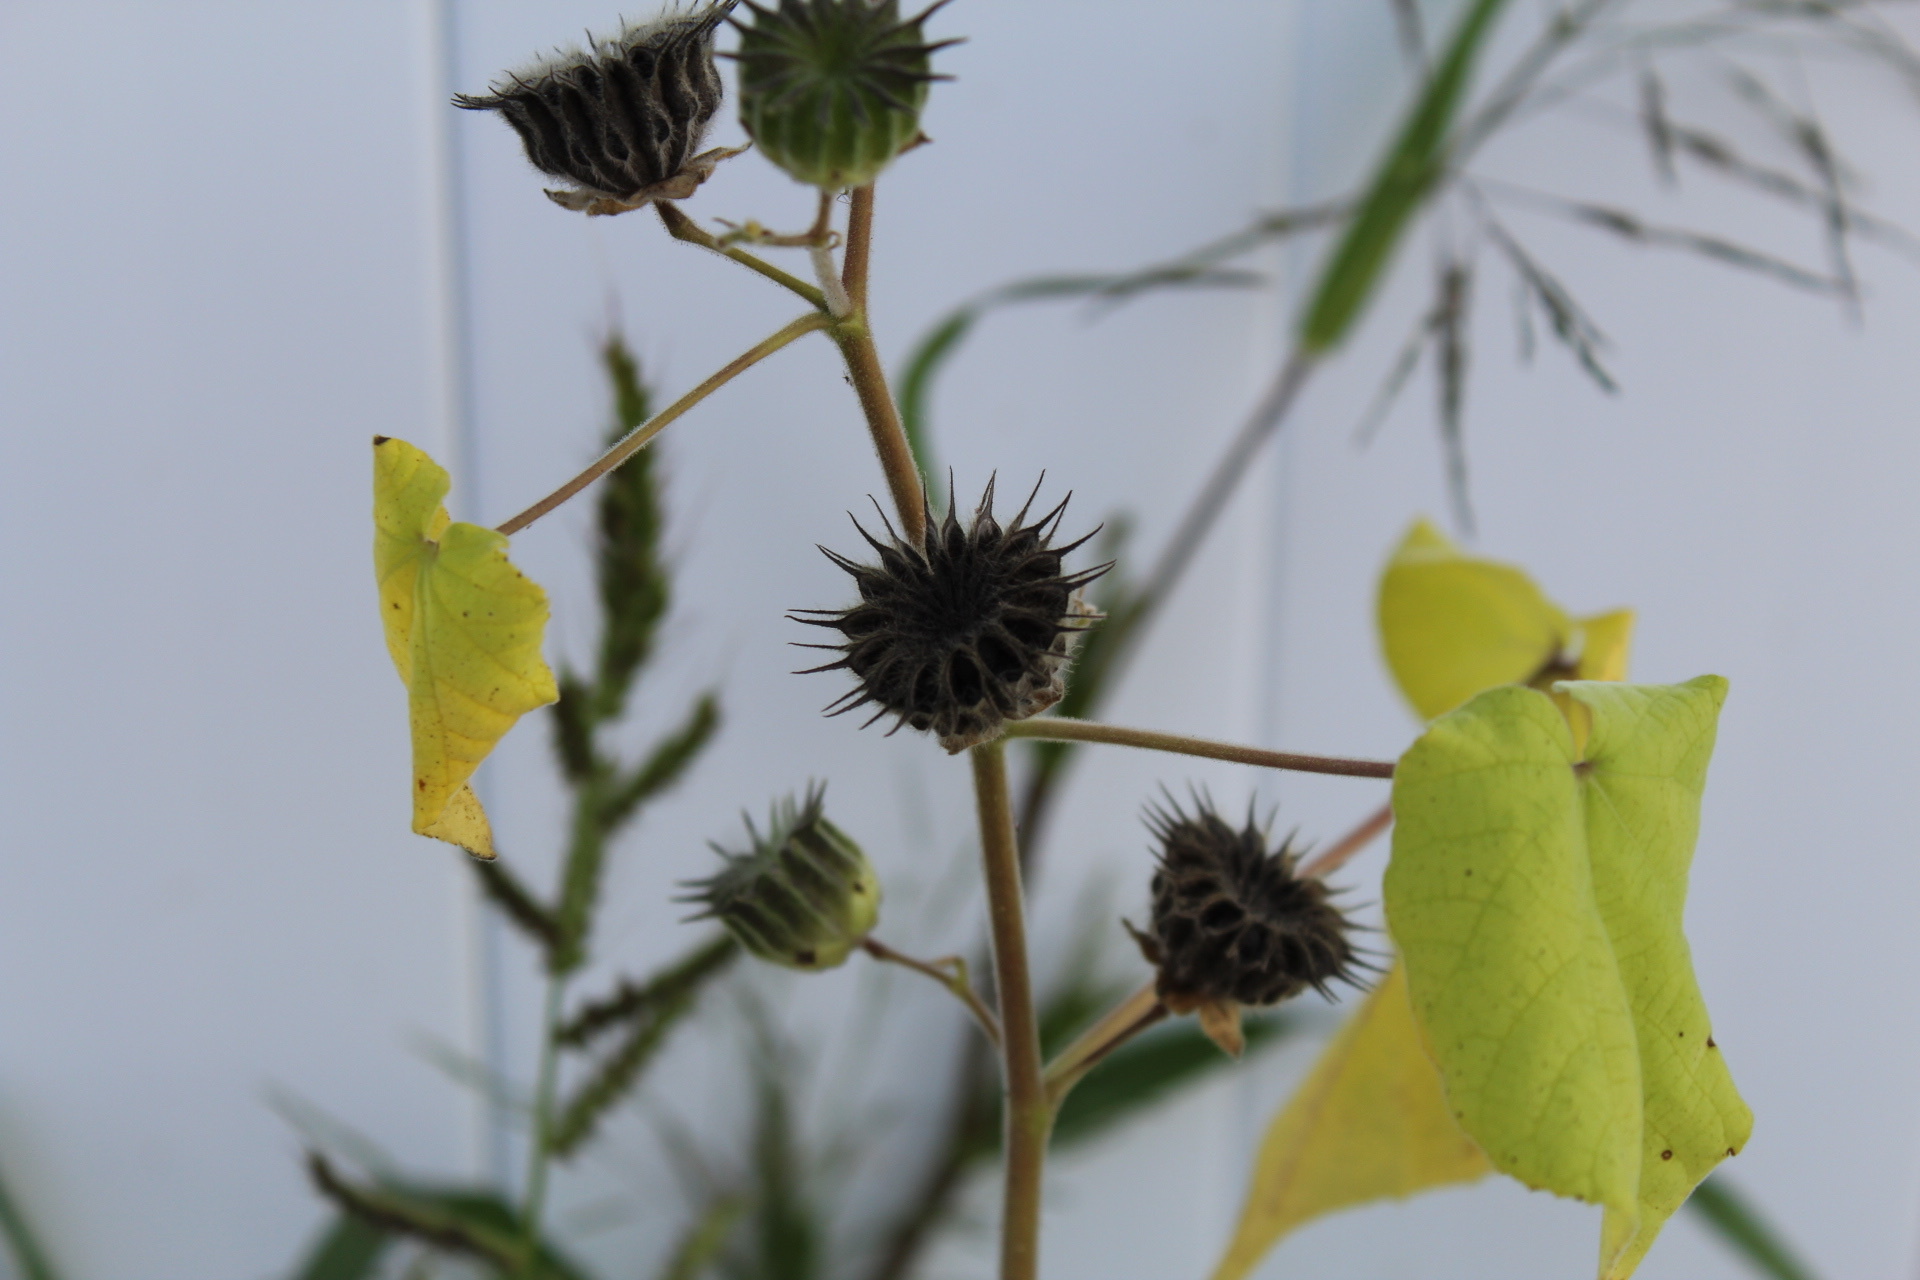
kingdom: Plantae
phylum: Tracheophyta
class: Magnoliopsida
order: Malvales
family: Malvaceae
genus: Abutilon
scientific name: Abutilon theophrasti
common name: Velvetleaf
